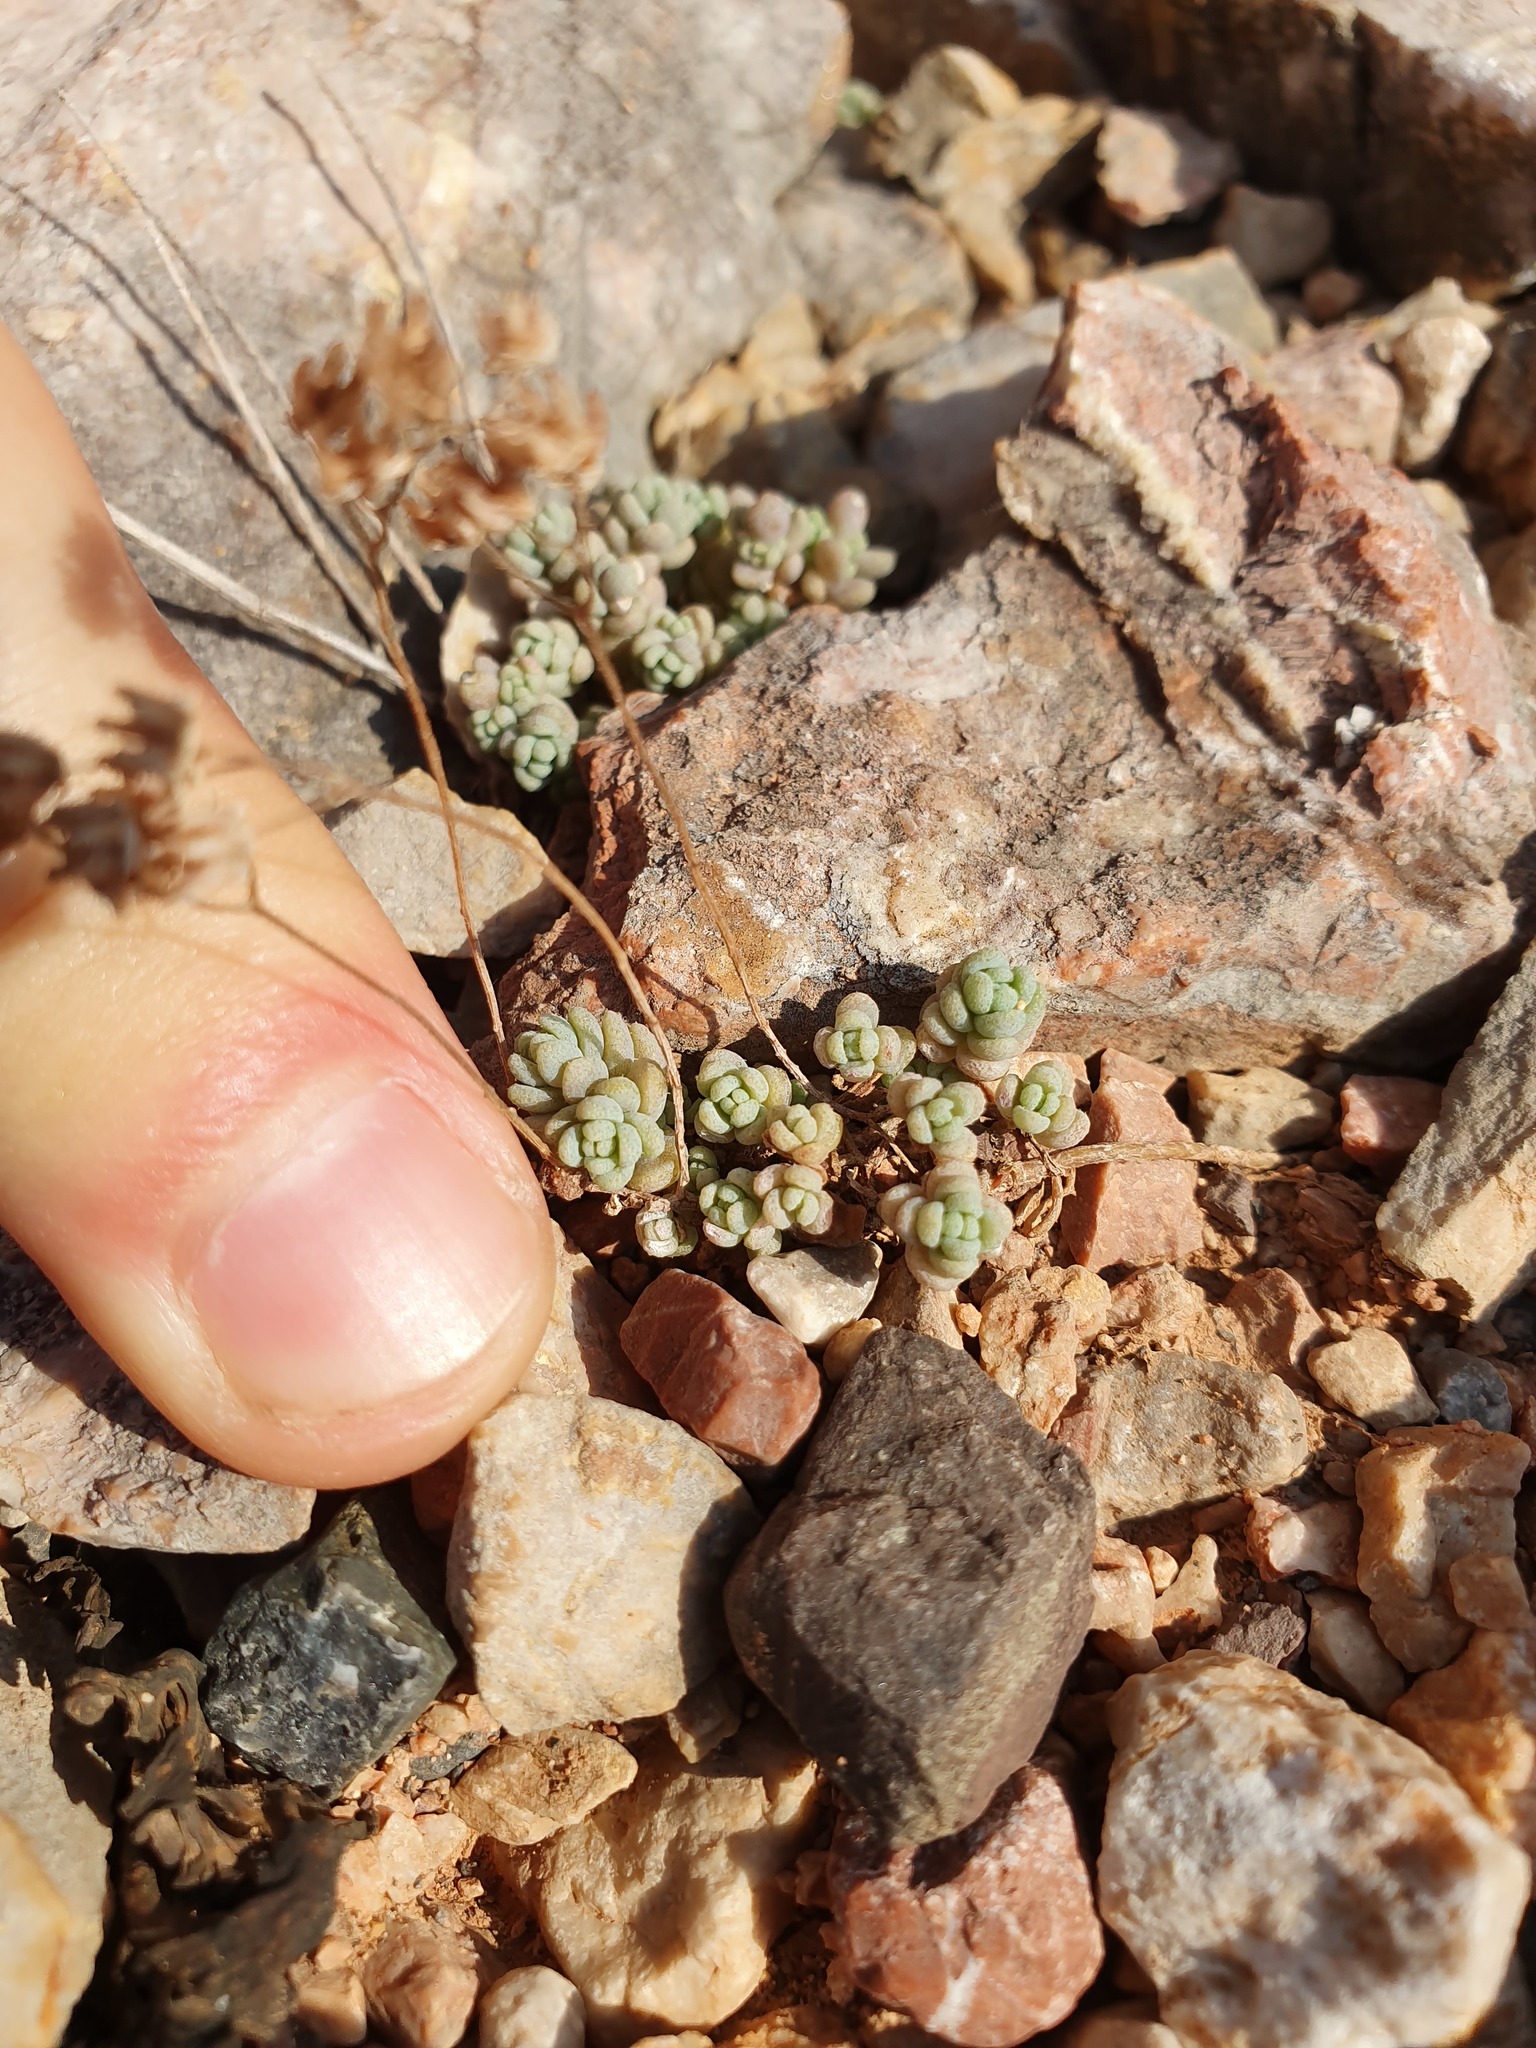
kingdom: Plantae
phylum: Tracheophyta
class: Magnoliopsida
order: Saxifragales
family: Crassulaceae
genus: Sedum
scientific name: Sedum dasyphyllum
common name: Thick-leaf stonecrop
